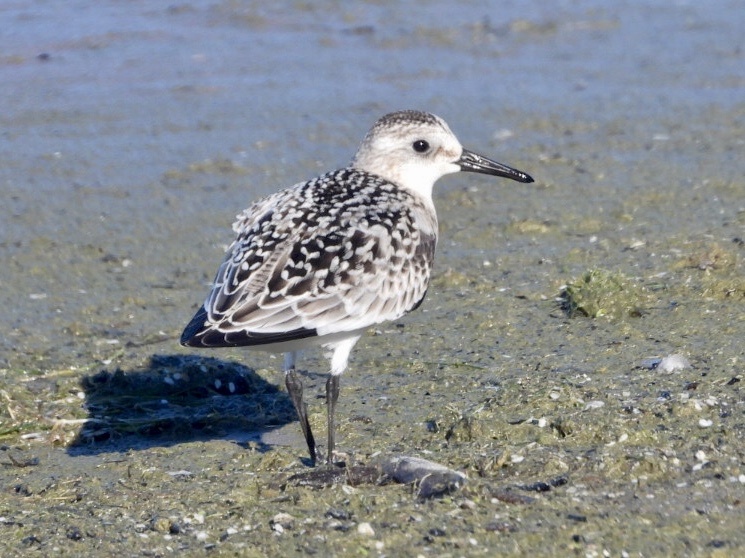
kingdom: Animalia
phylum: Chordata
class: Aves
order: Charadriiformes
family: Scolopacidae
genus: Calidris
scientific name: Calidris alba
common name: Sanderling
